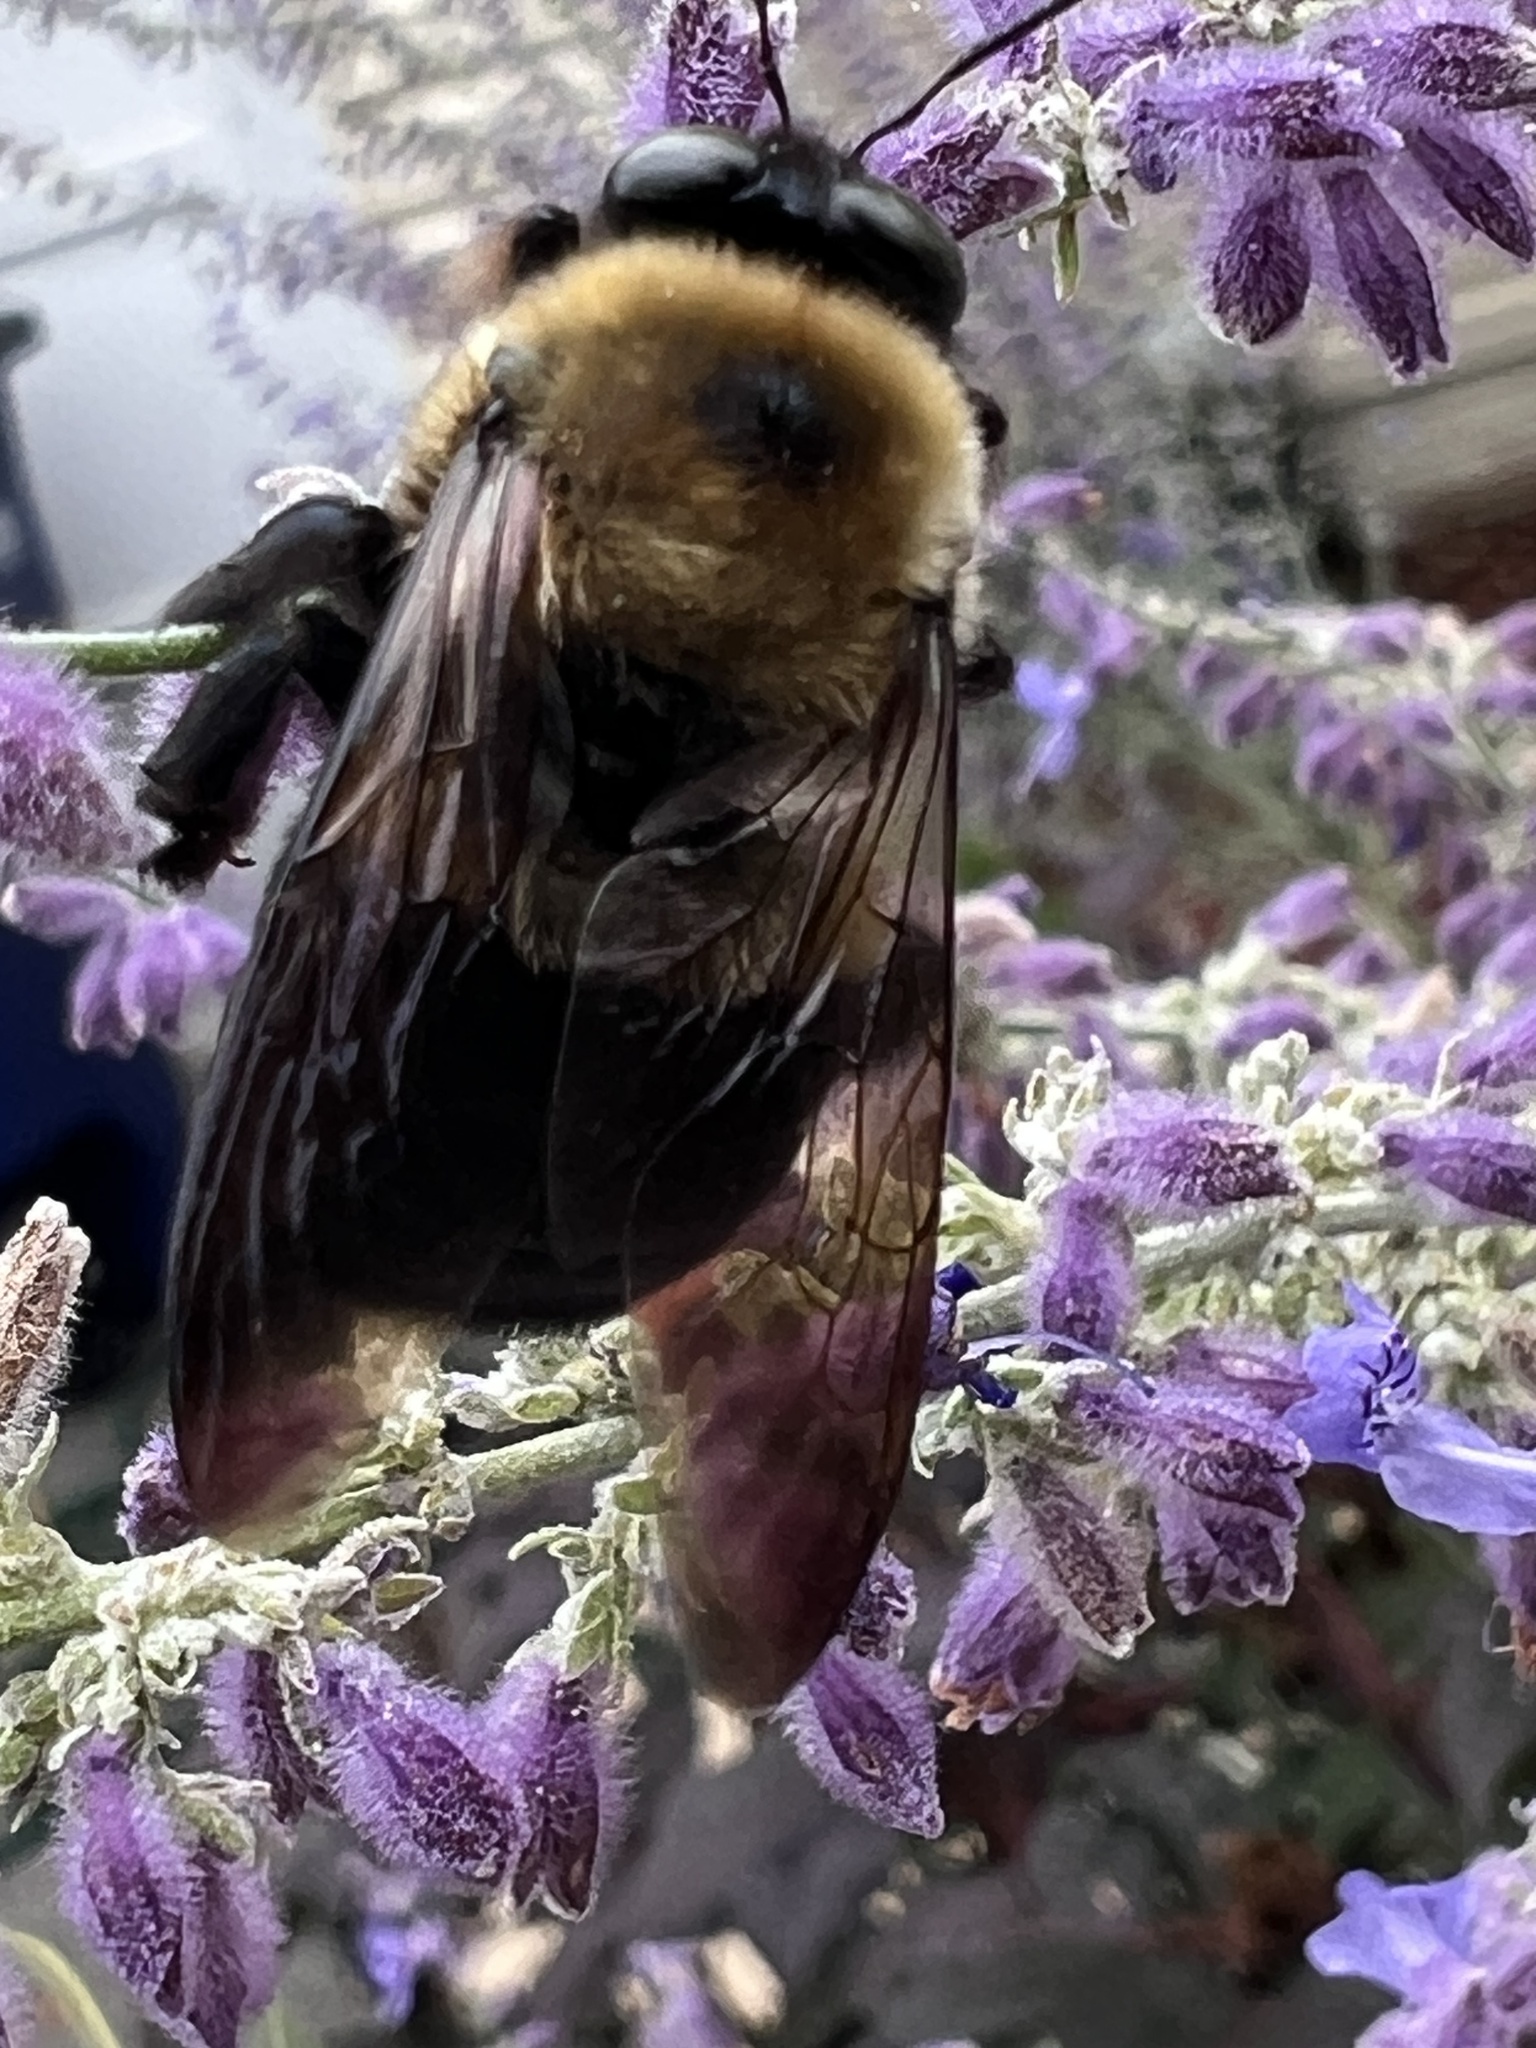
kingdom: Animalia
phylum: Arthropoda
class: Insecta
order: Hymenoptera
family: Apidae
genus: Xylocopa
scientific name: Xylocopa virginica
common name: Carpenter bee
